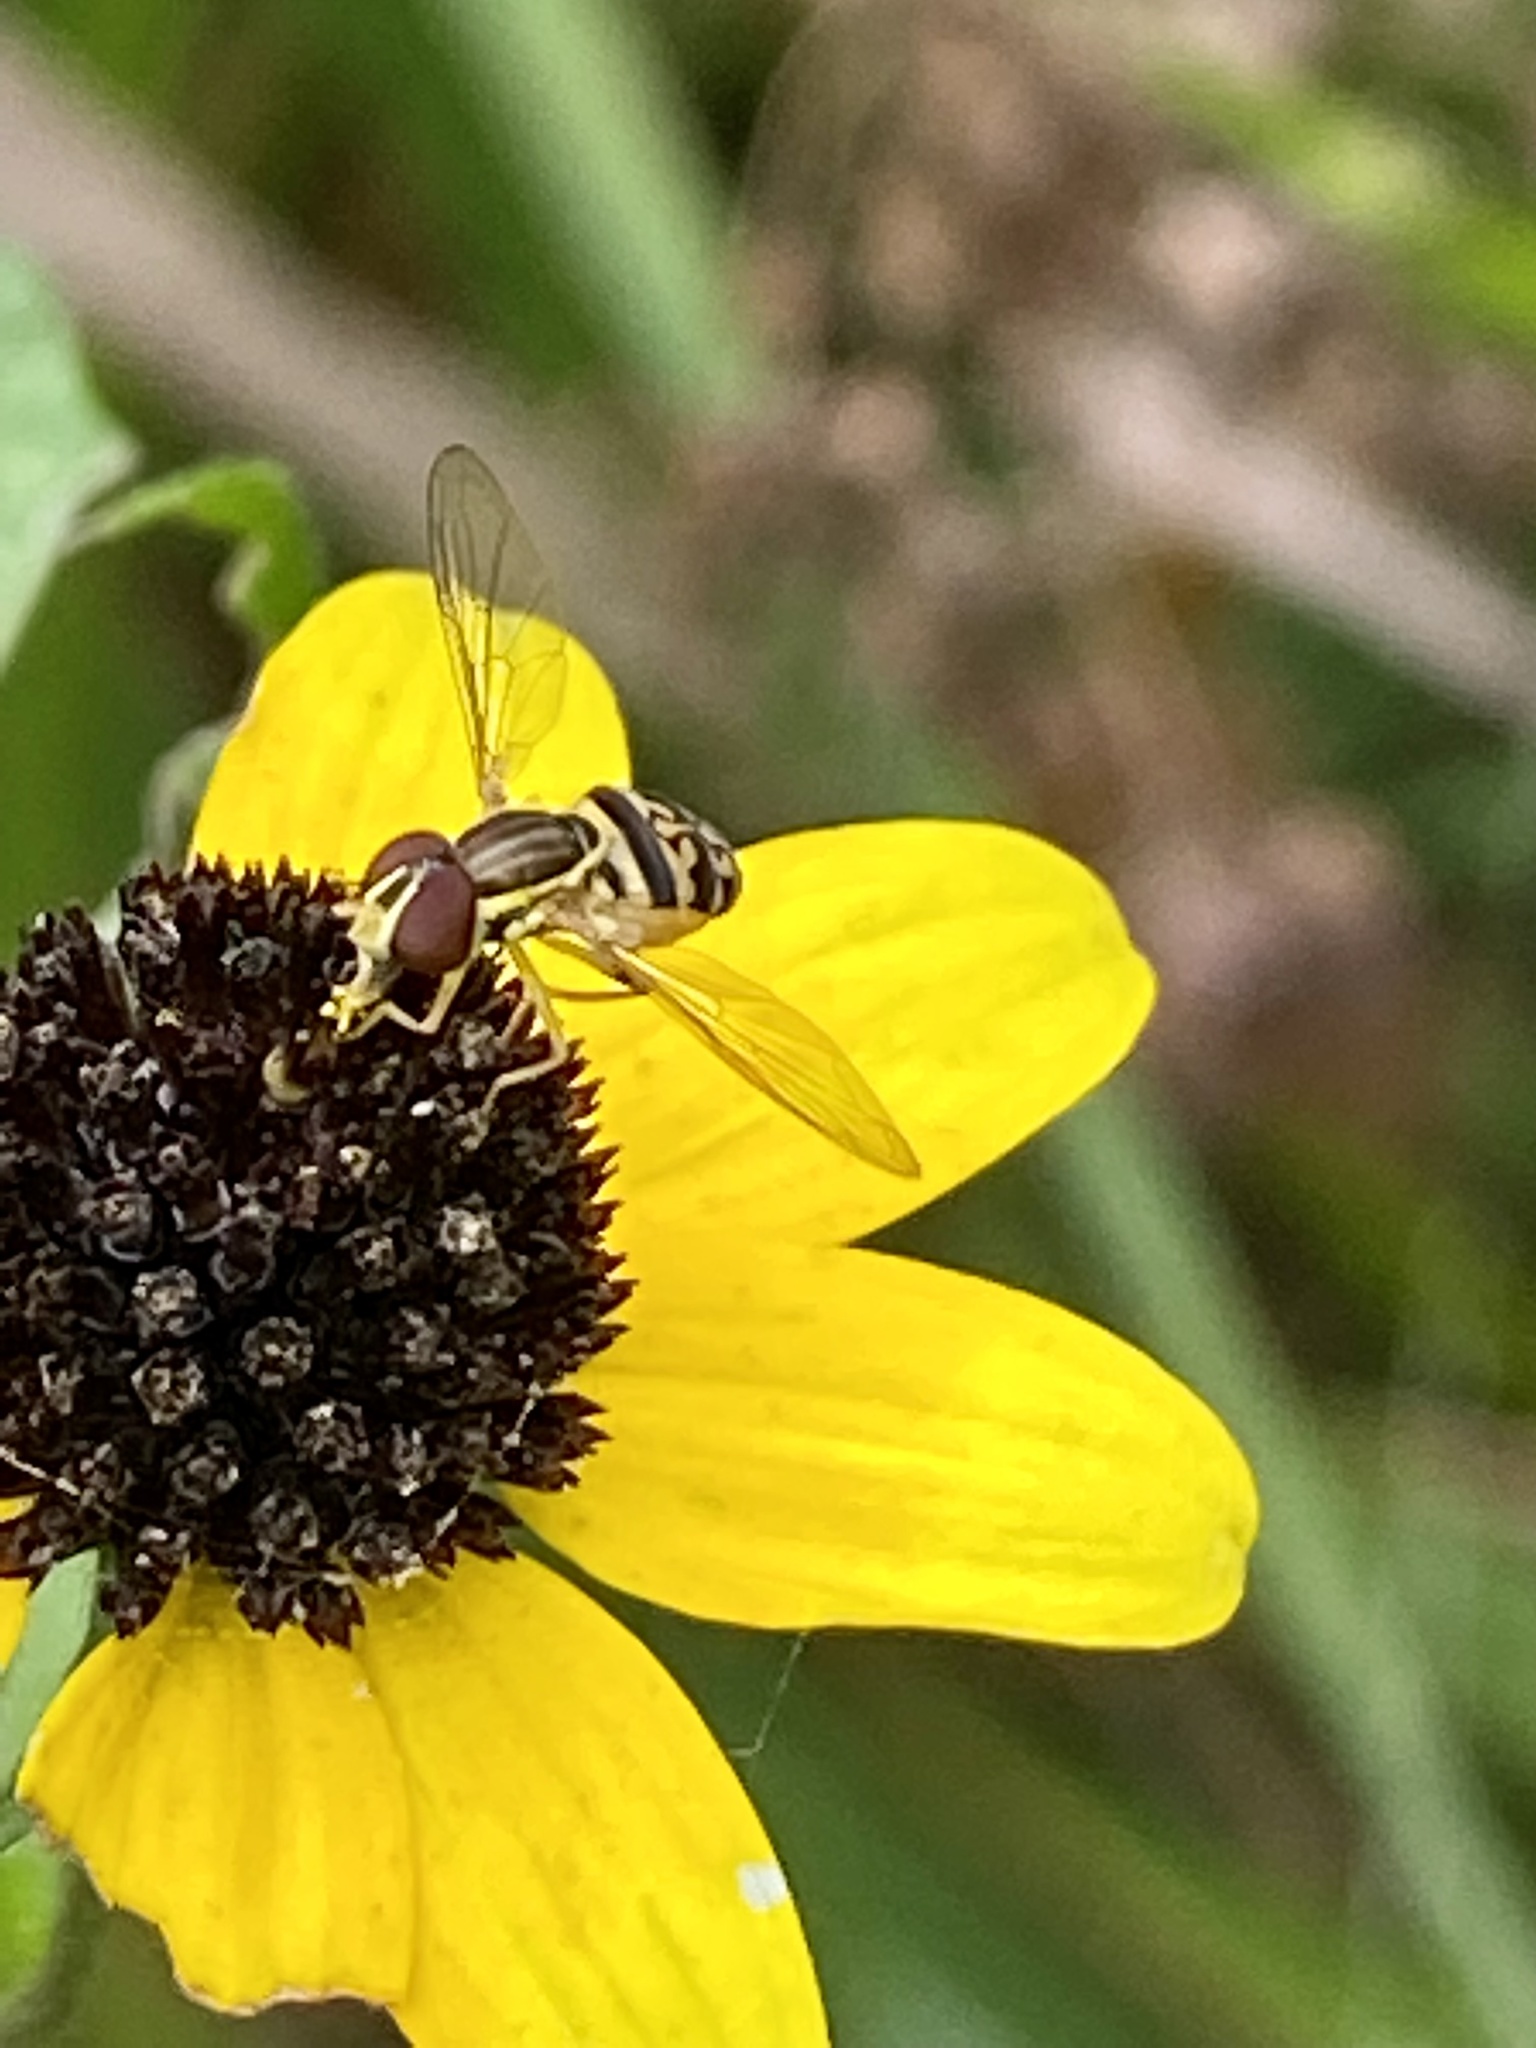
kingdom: Animalia
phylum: Arthropoda
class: Insecta
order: Diptera
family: Syrphidae
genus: Toxomerus
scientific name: Toxomerus geminatus
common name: Eastern calligrapher
